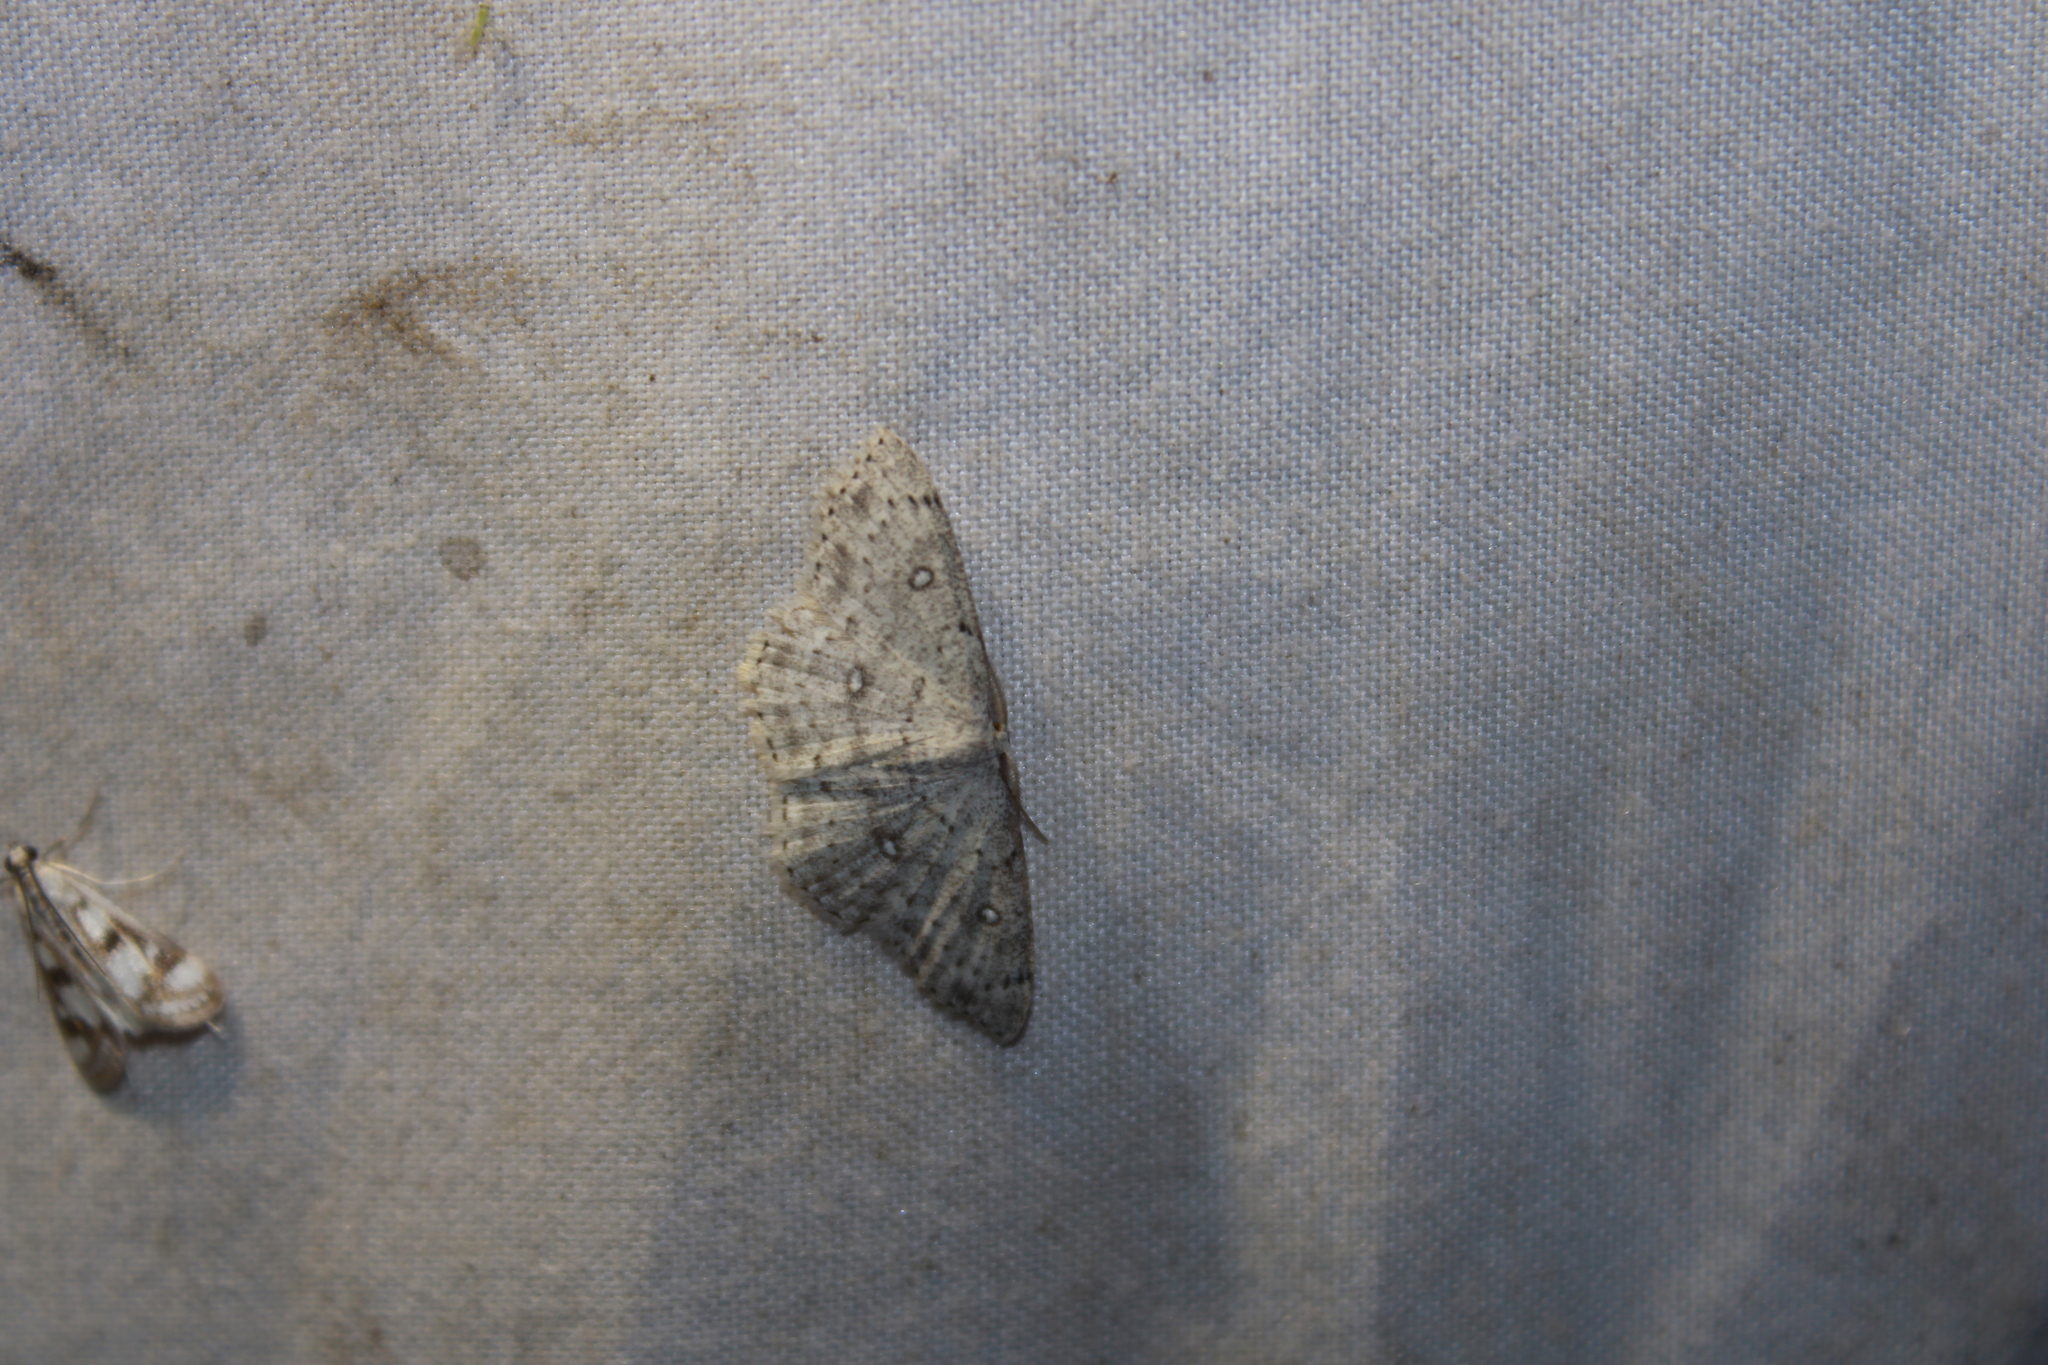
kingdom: Animalia
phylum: Arthropoda
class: Insecta
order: Lepidoptera
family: Geometridae
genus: Cyclophora
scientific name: Cyclophora pendulinaria
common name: Sweet fern geometer
